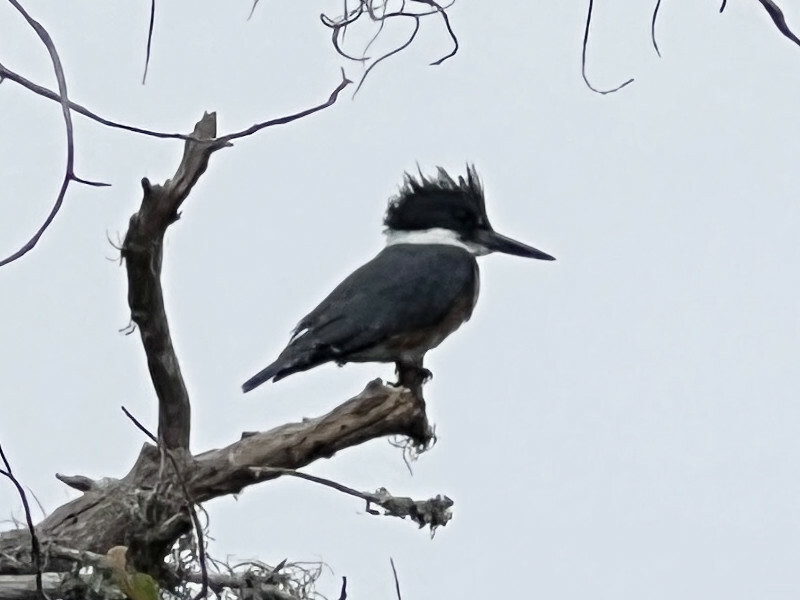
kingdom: Animalia
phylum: Chordata
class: Aves
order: Coraciiformes
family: Alcedinidae
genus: Megaceryle
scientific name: Megaceryle alcyon
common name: Belted kingfisher
